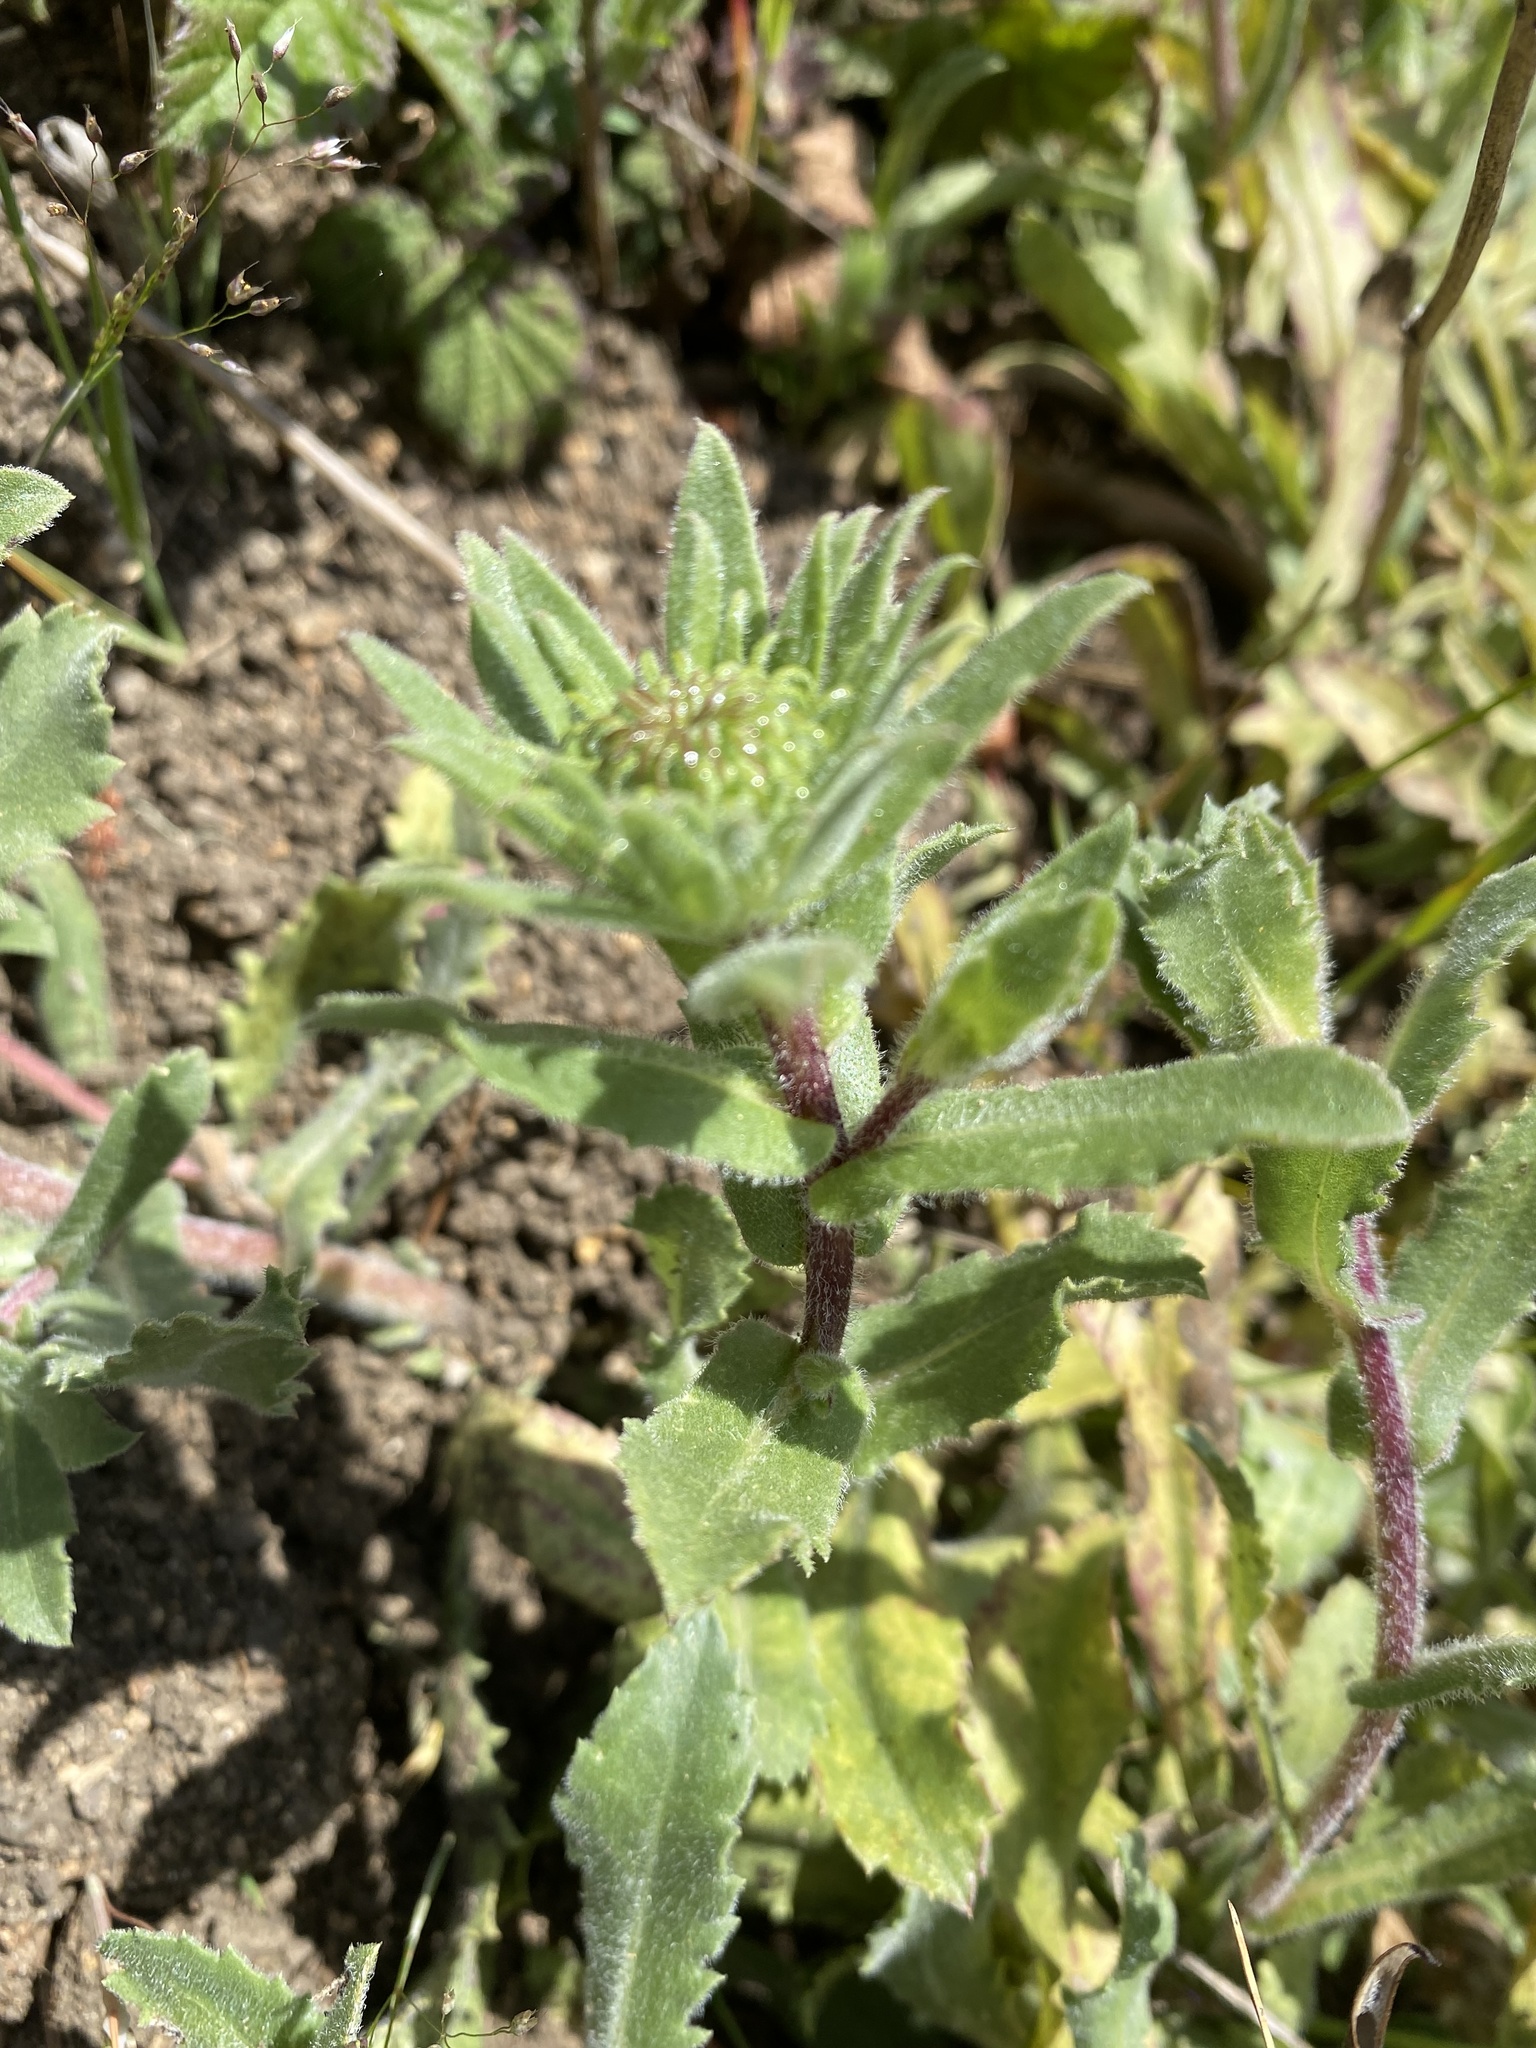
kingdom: Plantae
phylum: Tracheophyta
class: Magnoliopsida
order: Asterales
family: Asteraceae
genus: Grindelia
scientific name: Grindelia hirsutula
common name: Hairy gumweed
